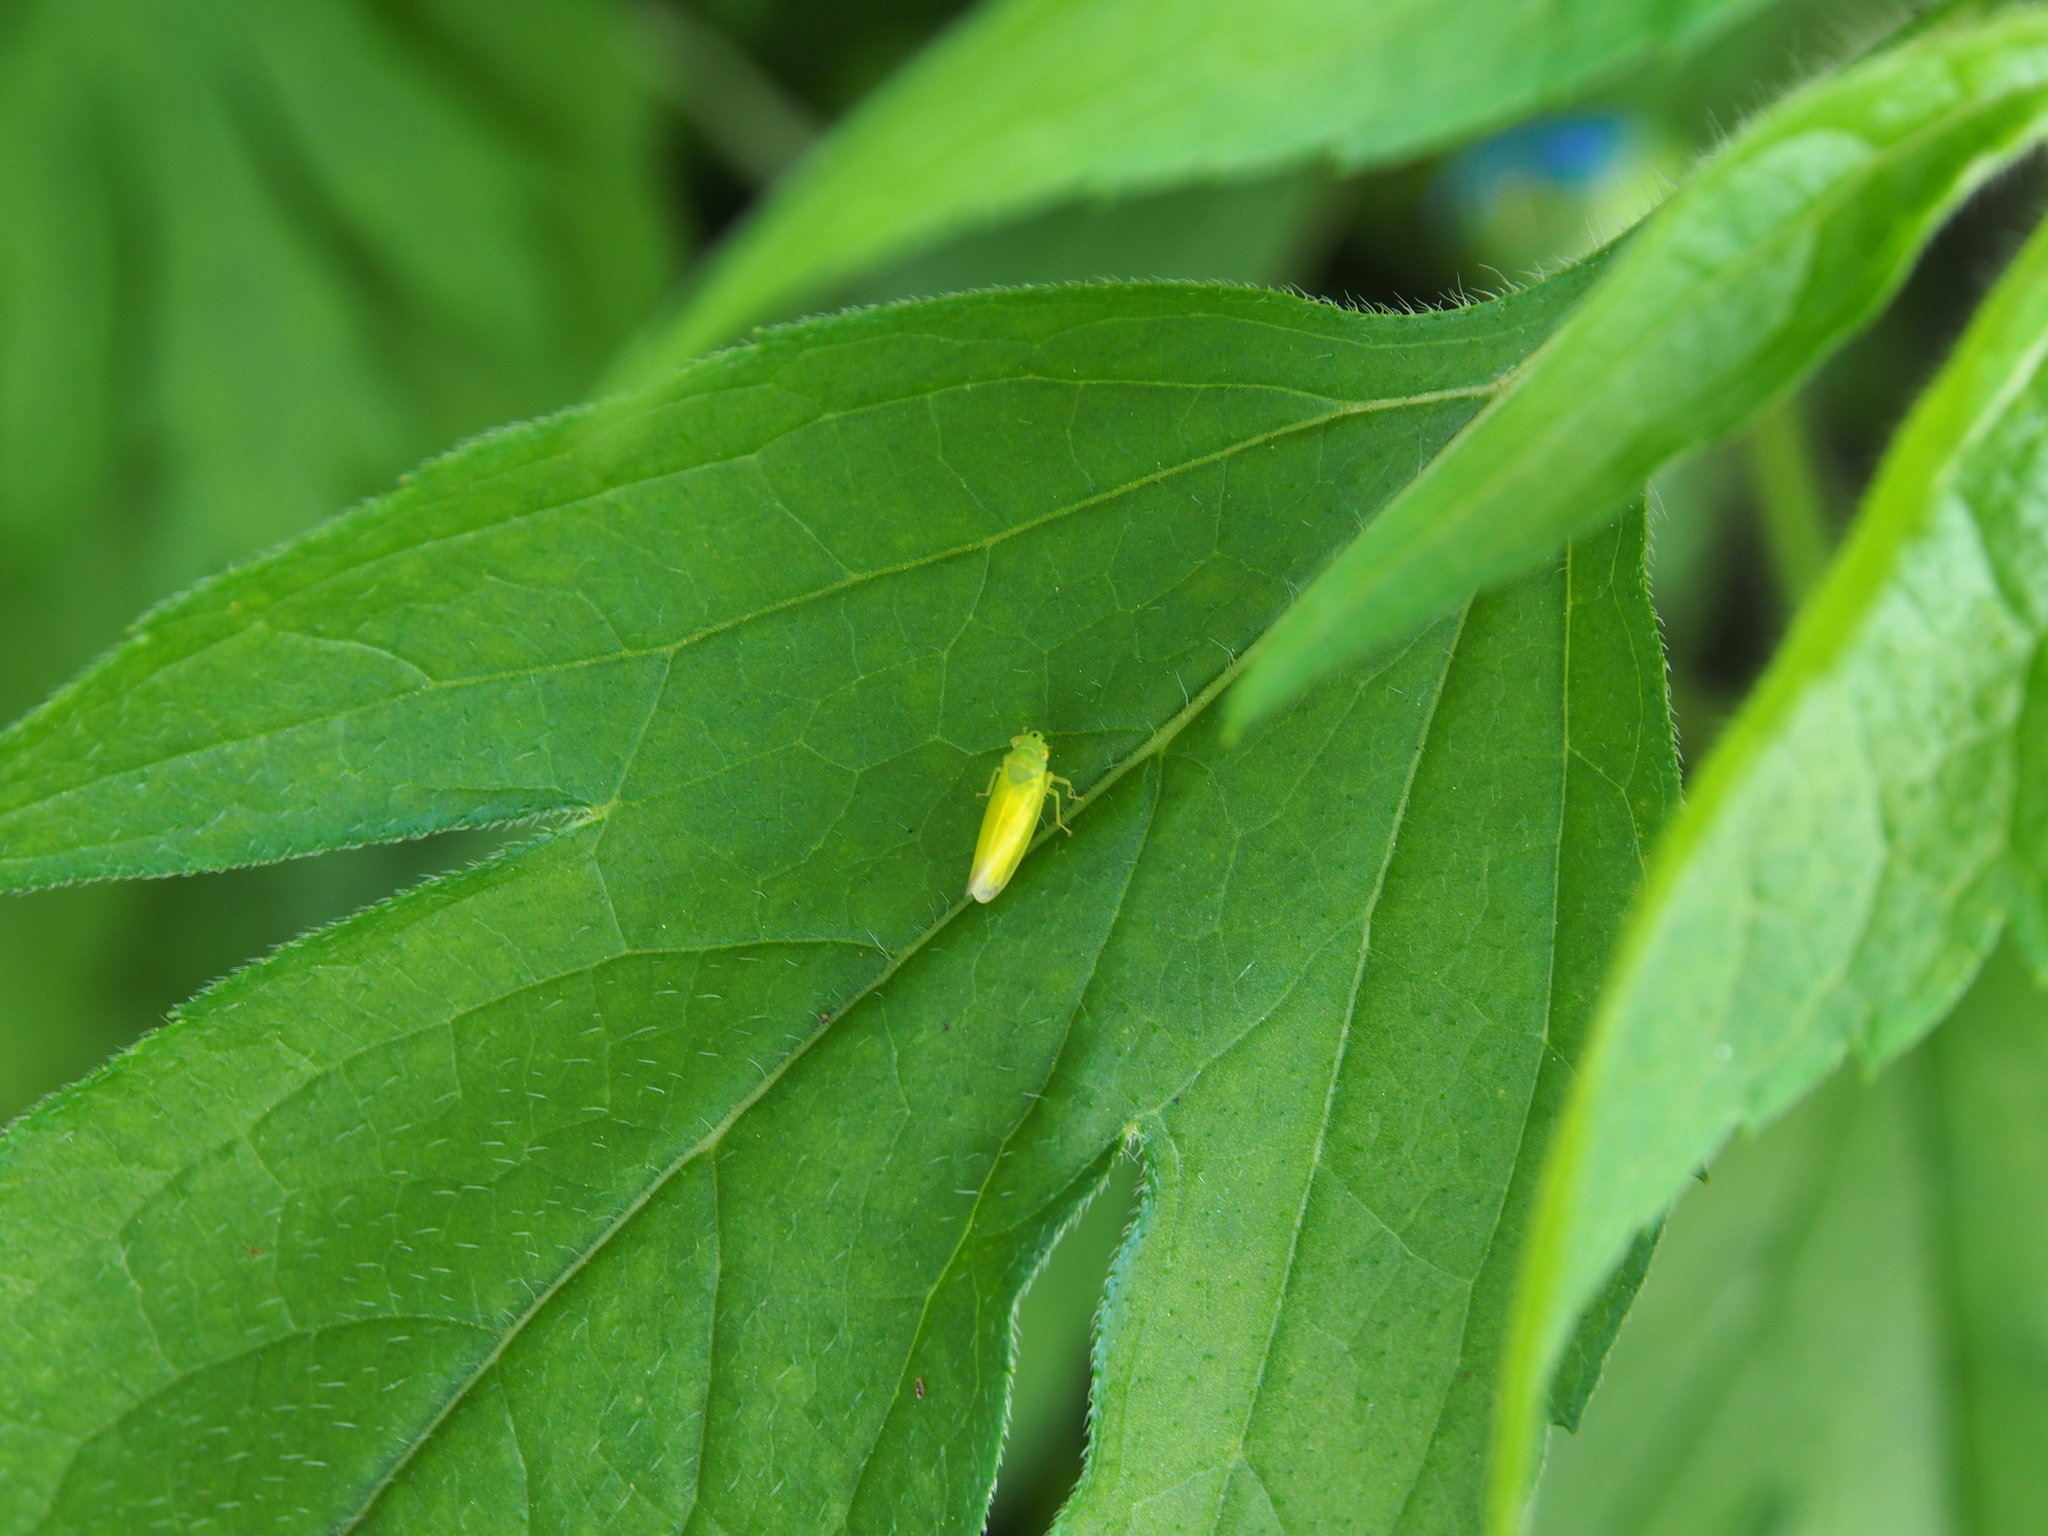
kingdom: Animalia
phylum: Arthropoda
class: Insecta
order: Hemiptera
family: Cicadellidae
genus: Pagaronia
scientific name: Pagaronia minor
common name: Leafhopper
